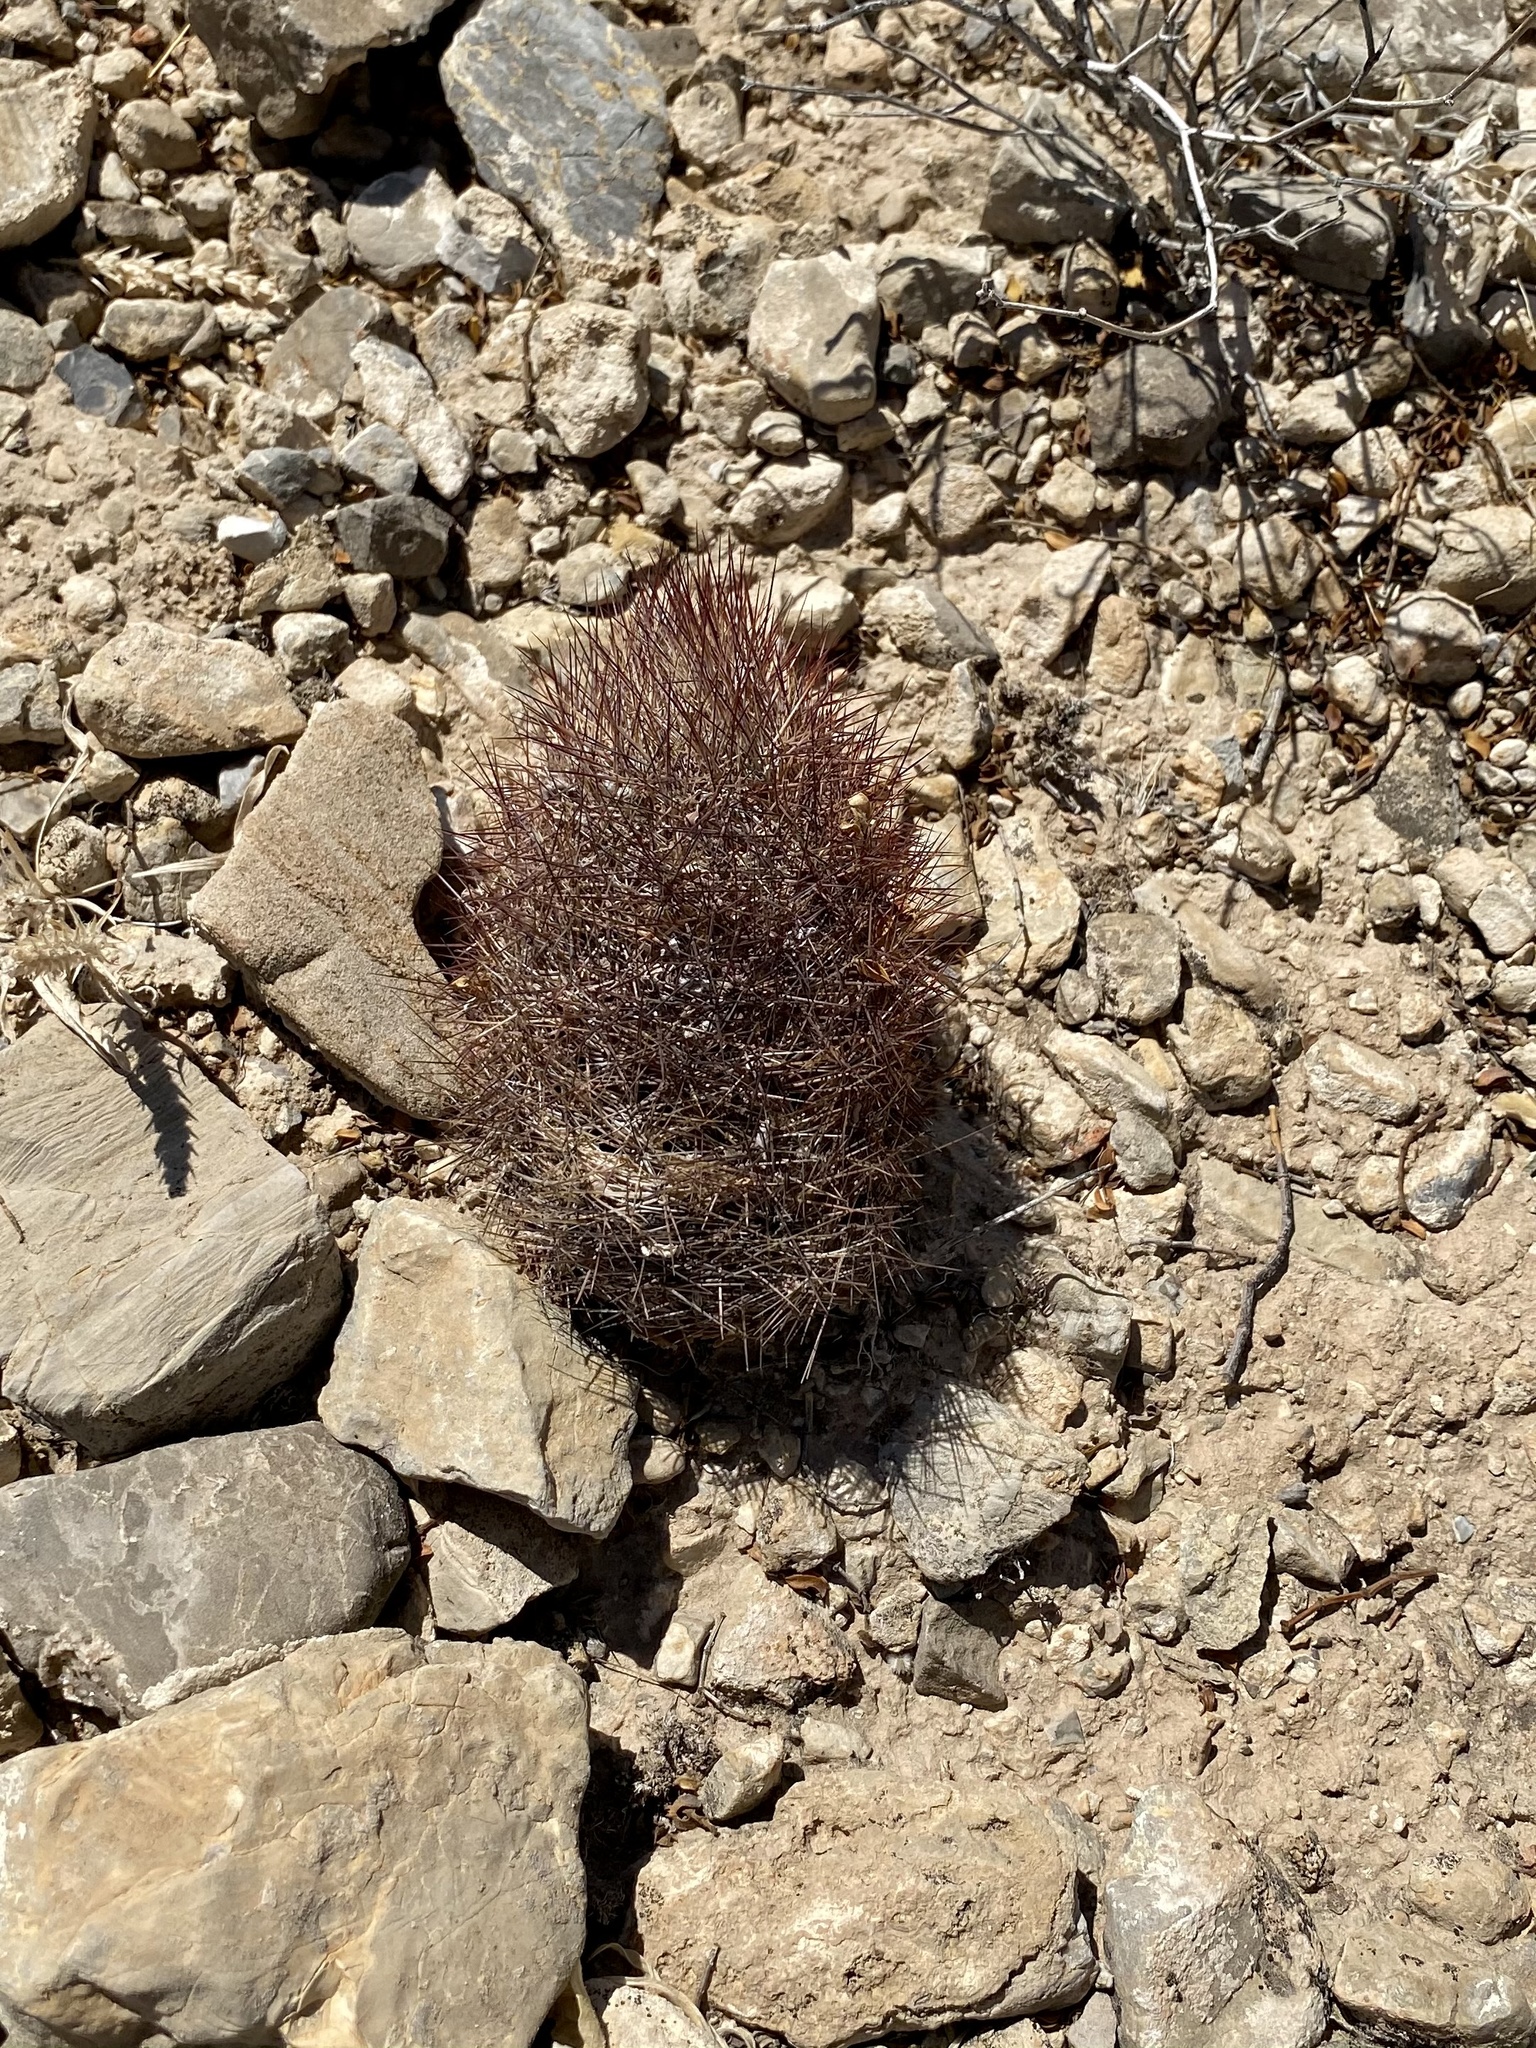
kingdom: Plantae
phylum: Tracheophyta
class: Magnoliopsida
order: Caryophyllales
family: Cactaceae
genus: Sclerocactus
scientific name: Sclerocactus intertextus
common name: White fish-hook cactus
